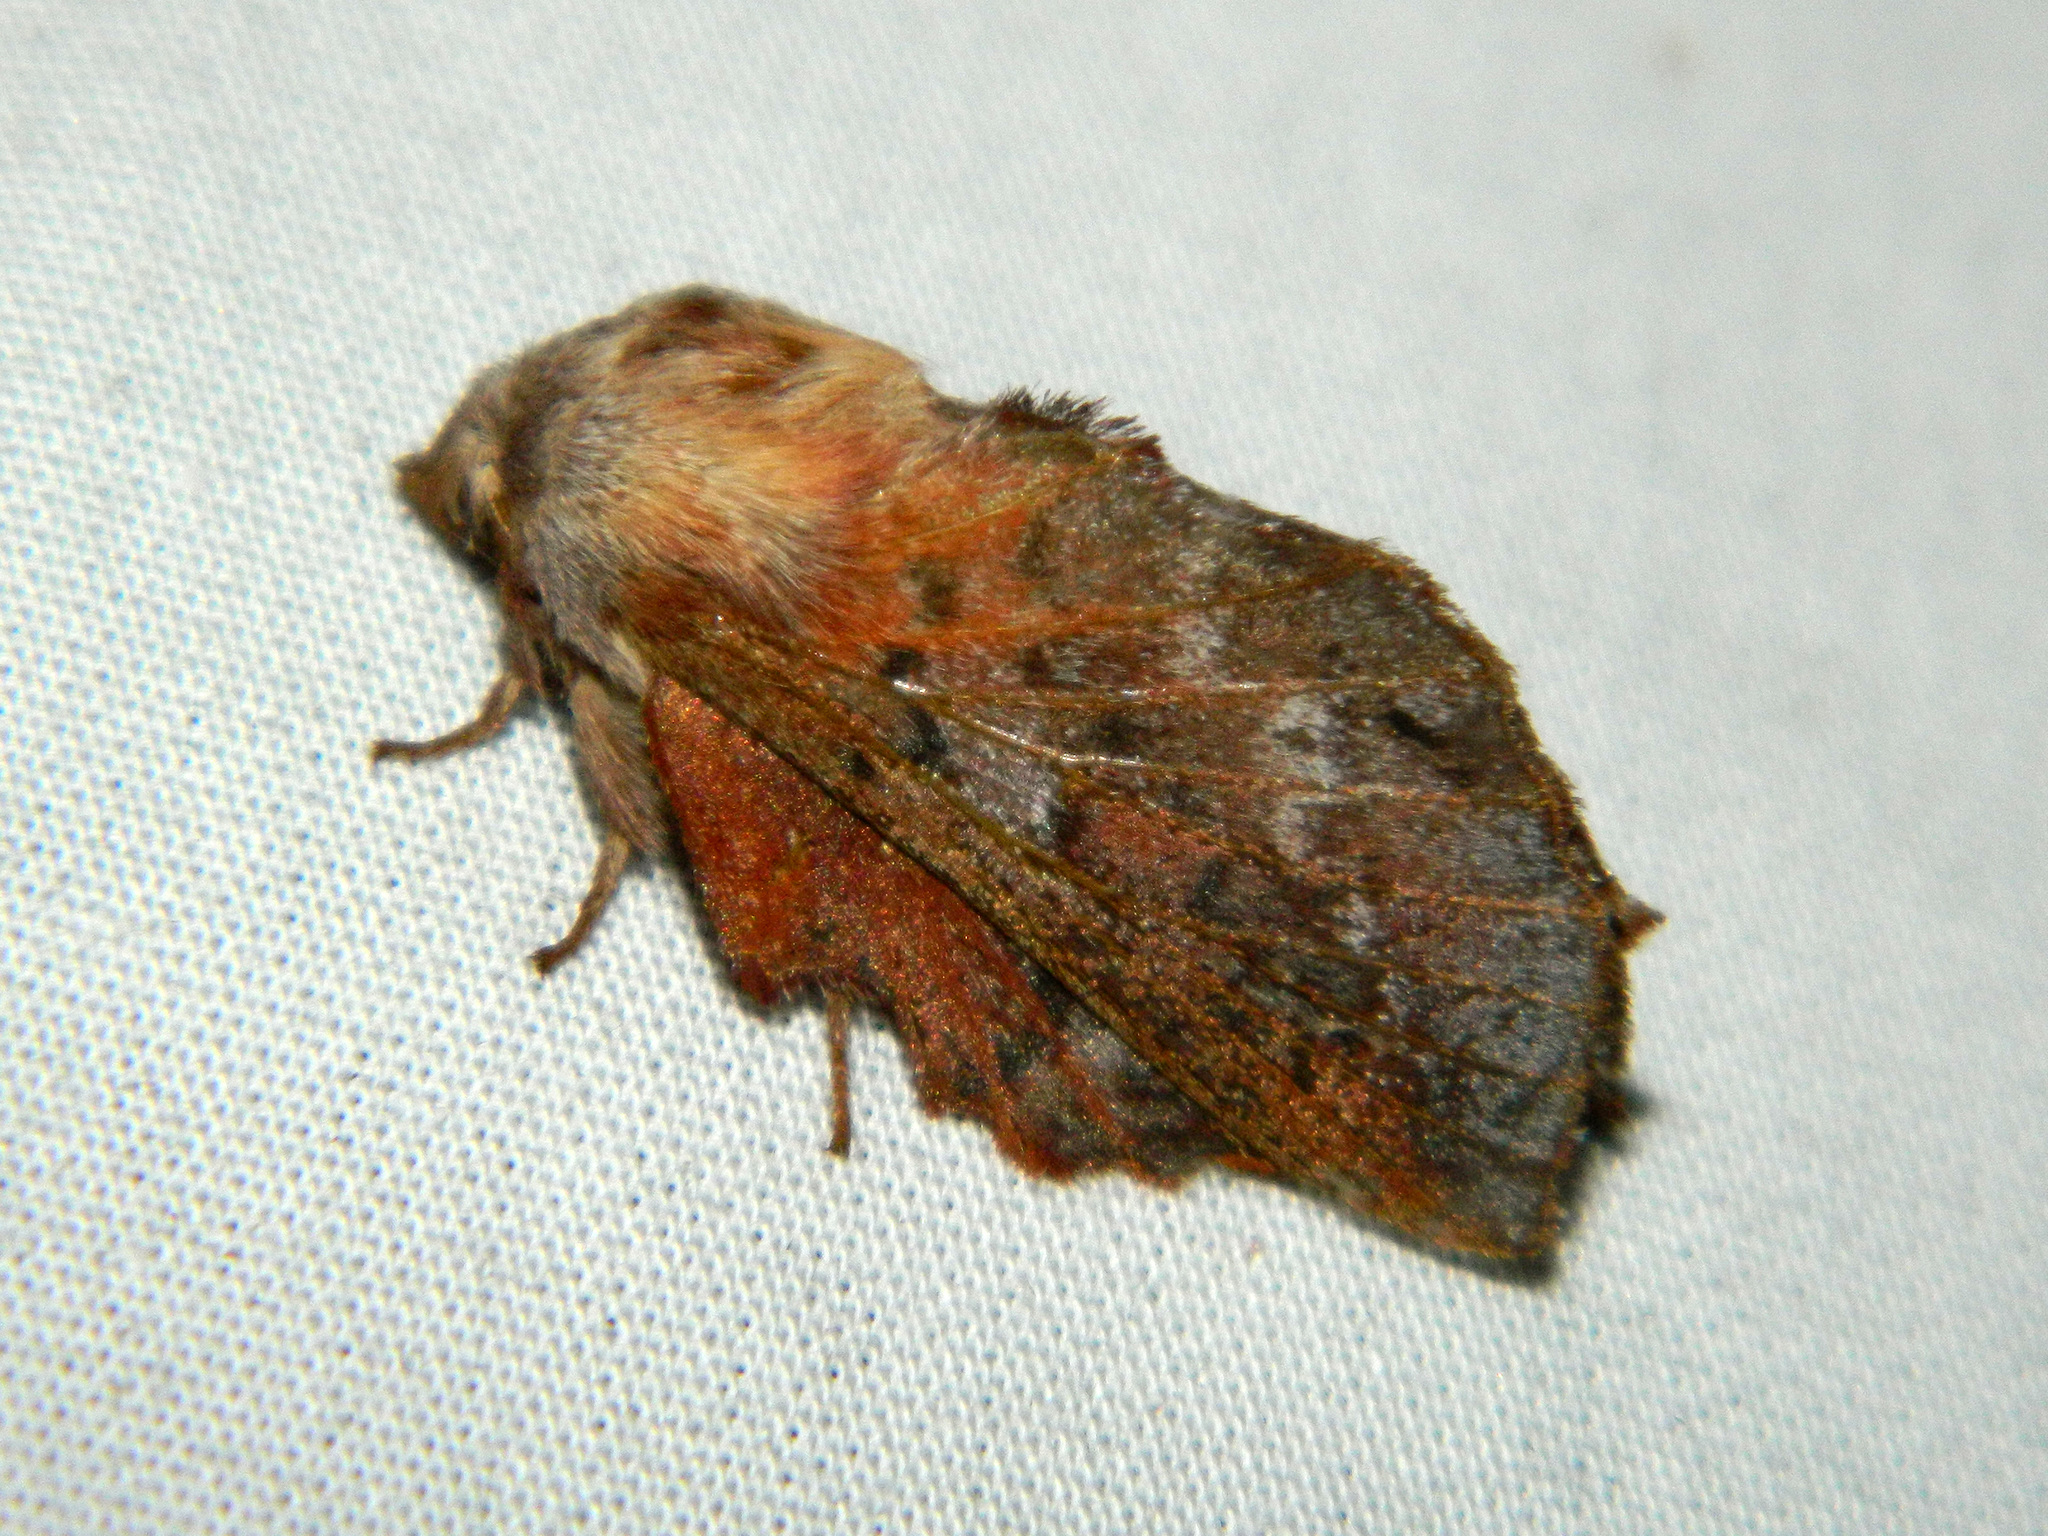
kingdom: Animalia
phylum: Arthropoda
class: Insecta
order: Lepidoptera
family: Lasiocampidae
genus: Phyllodesma
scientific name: Phyllodesma americana
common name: American lappet moth
